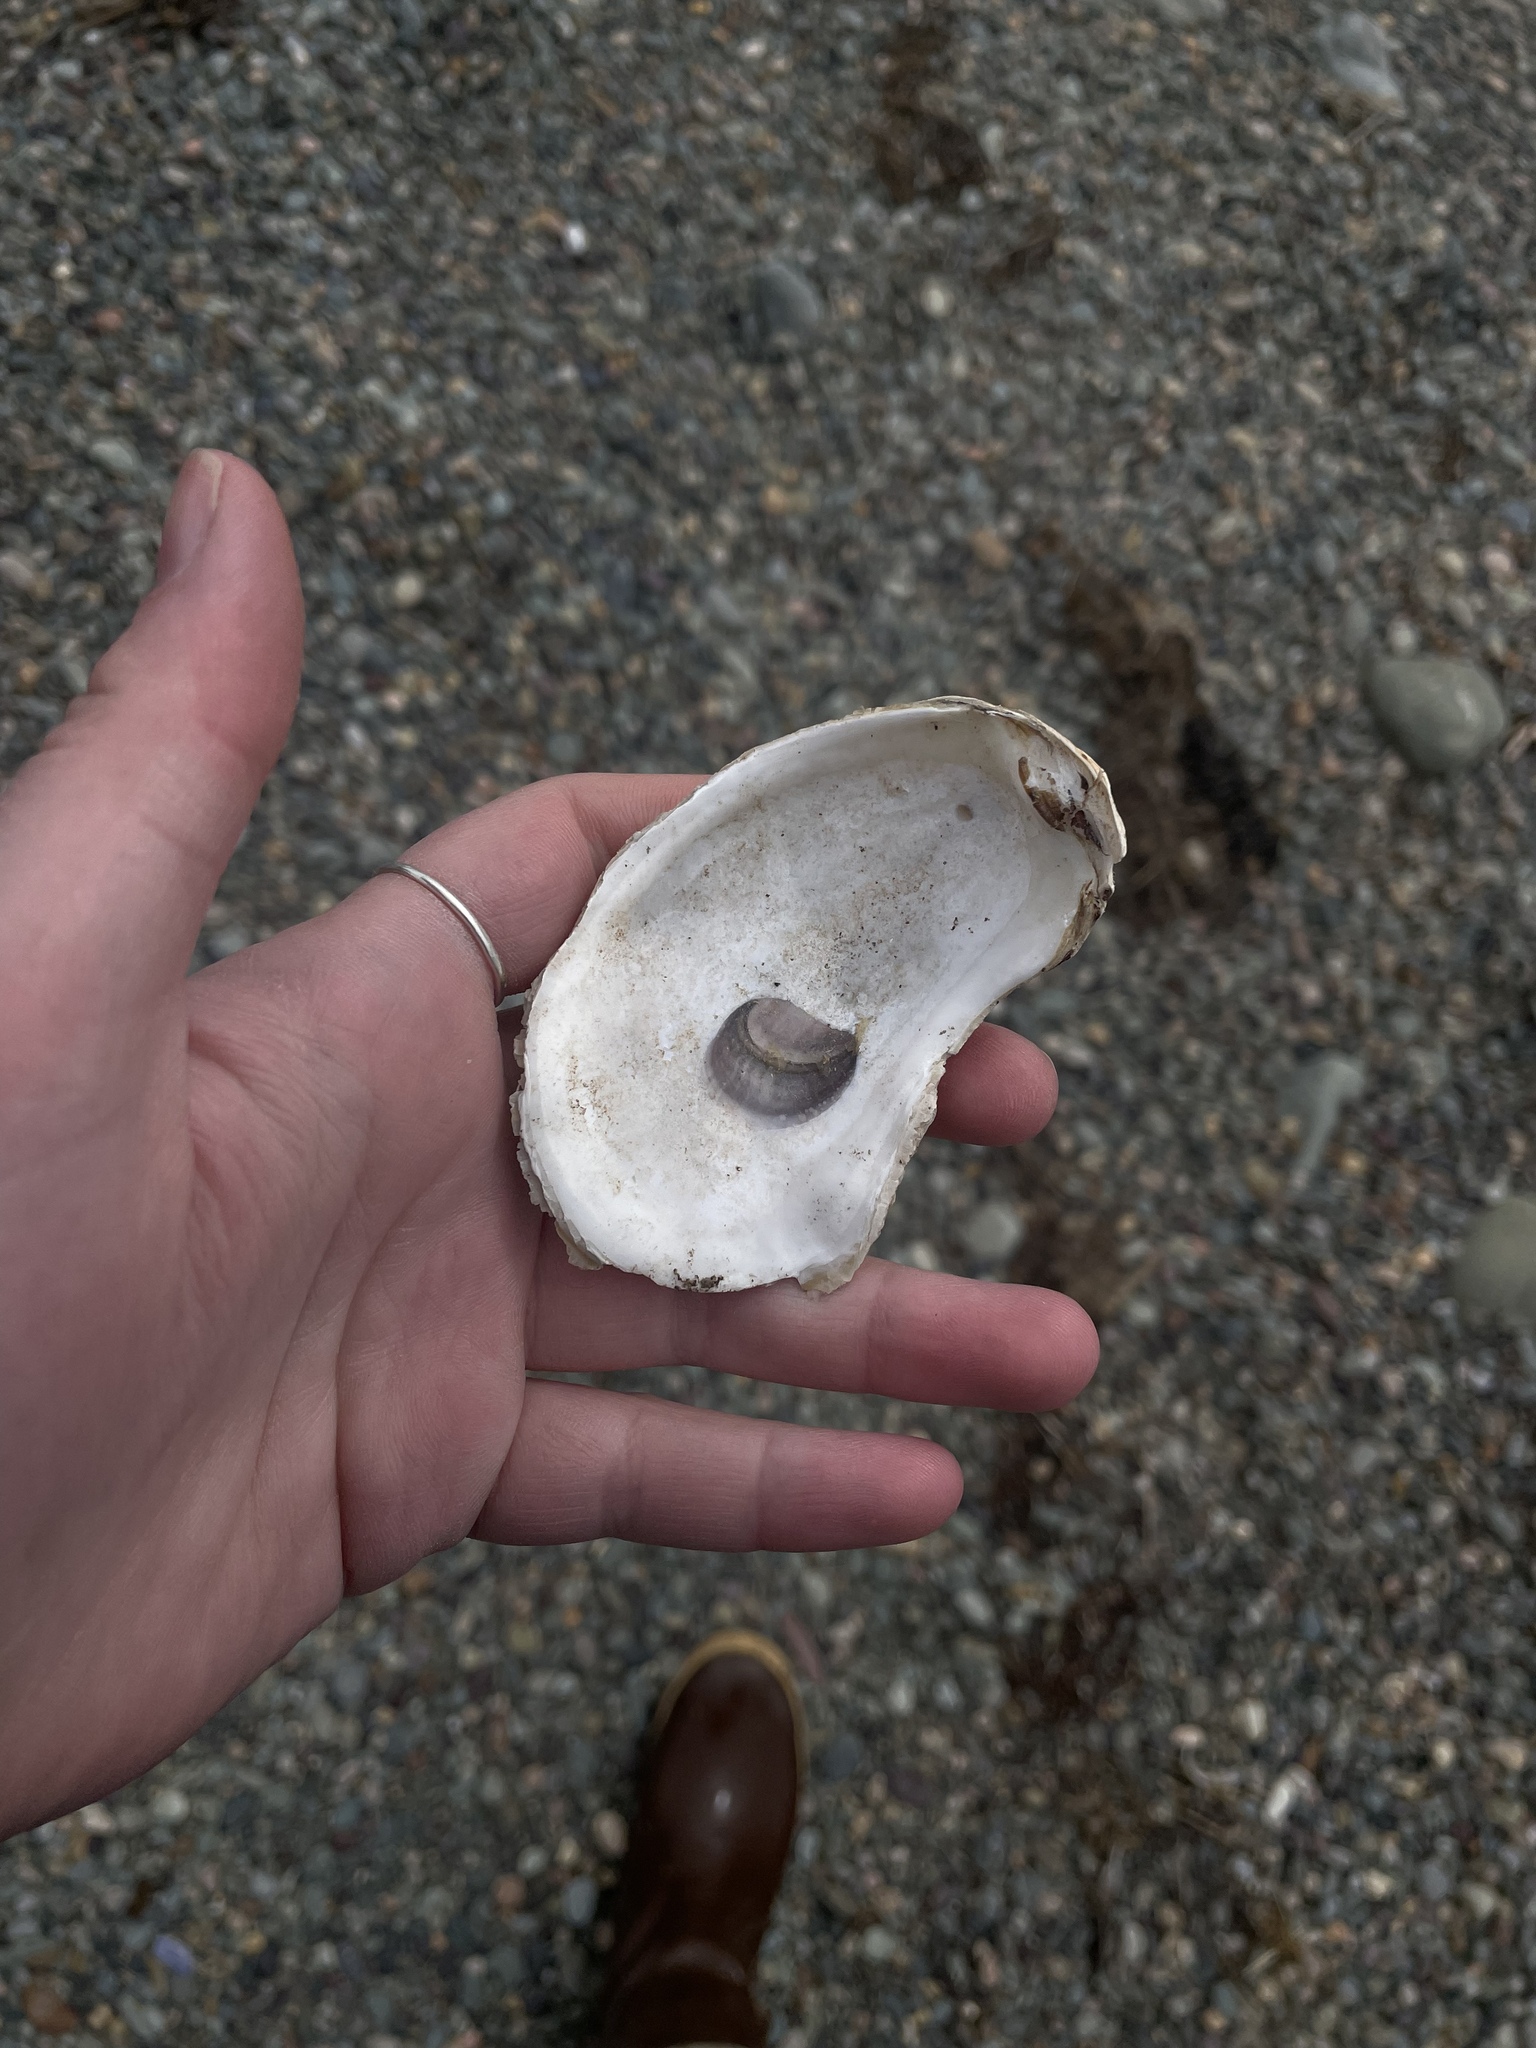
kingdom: Animalia
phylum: Mollusca
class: Bivalvia
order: Ostreida
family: Ostreidae
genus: Crassostrea
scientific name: Crassostrea virginica
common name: American oyster
